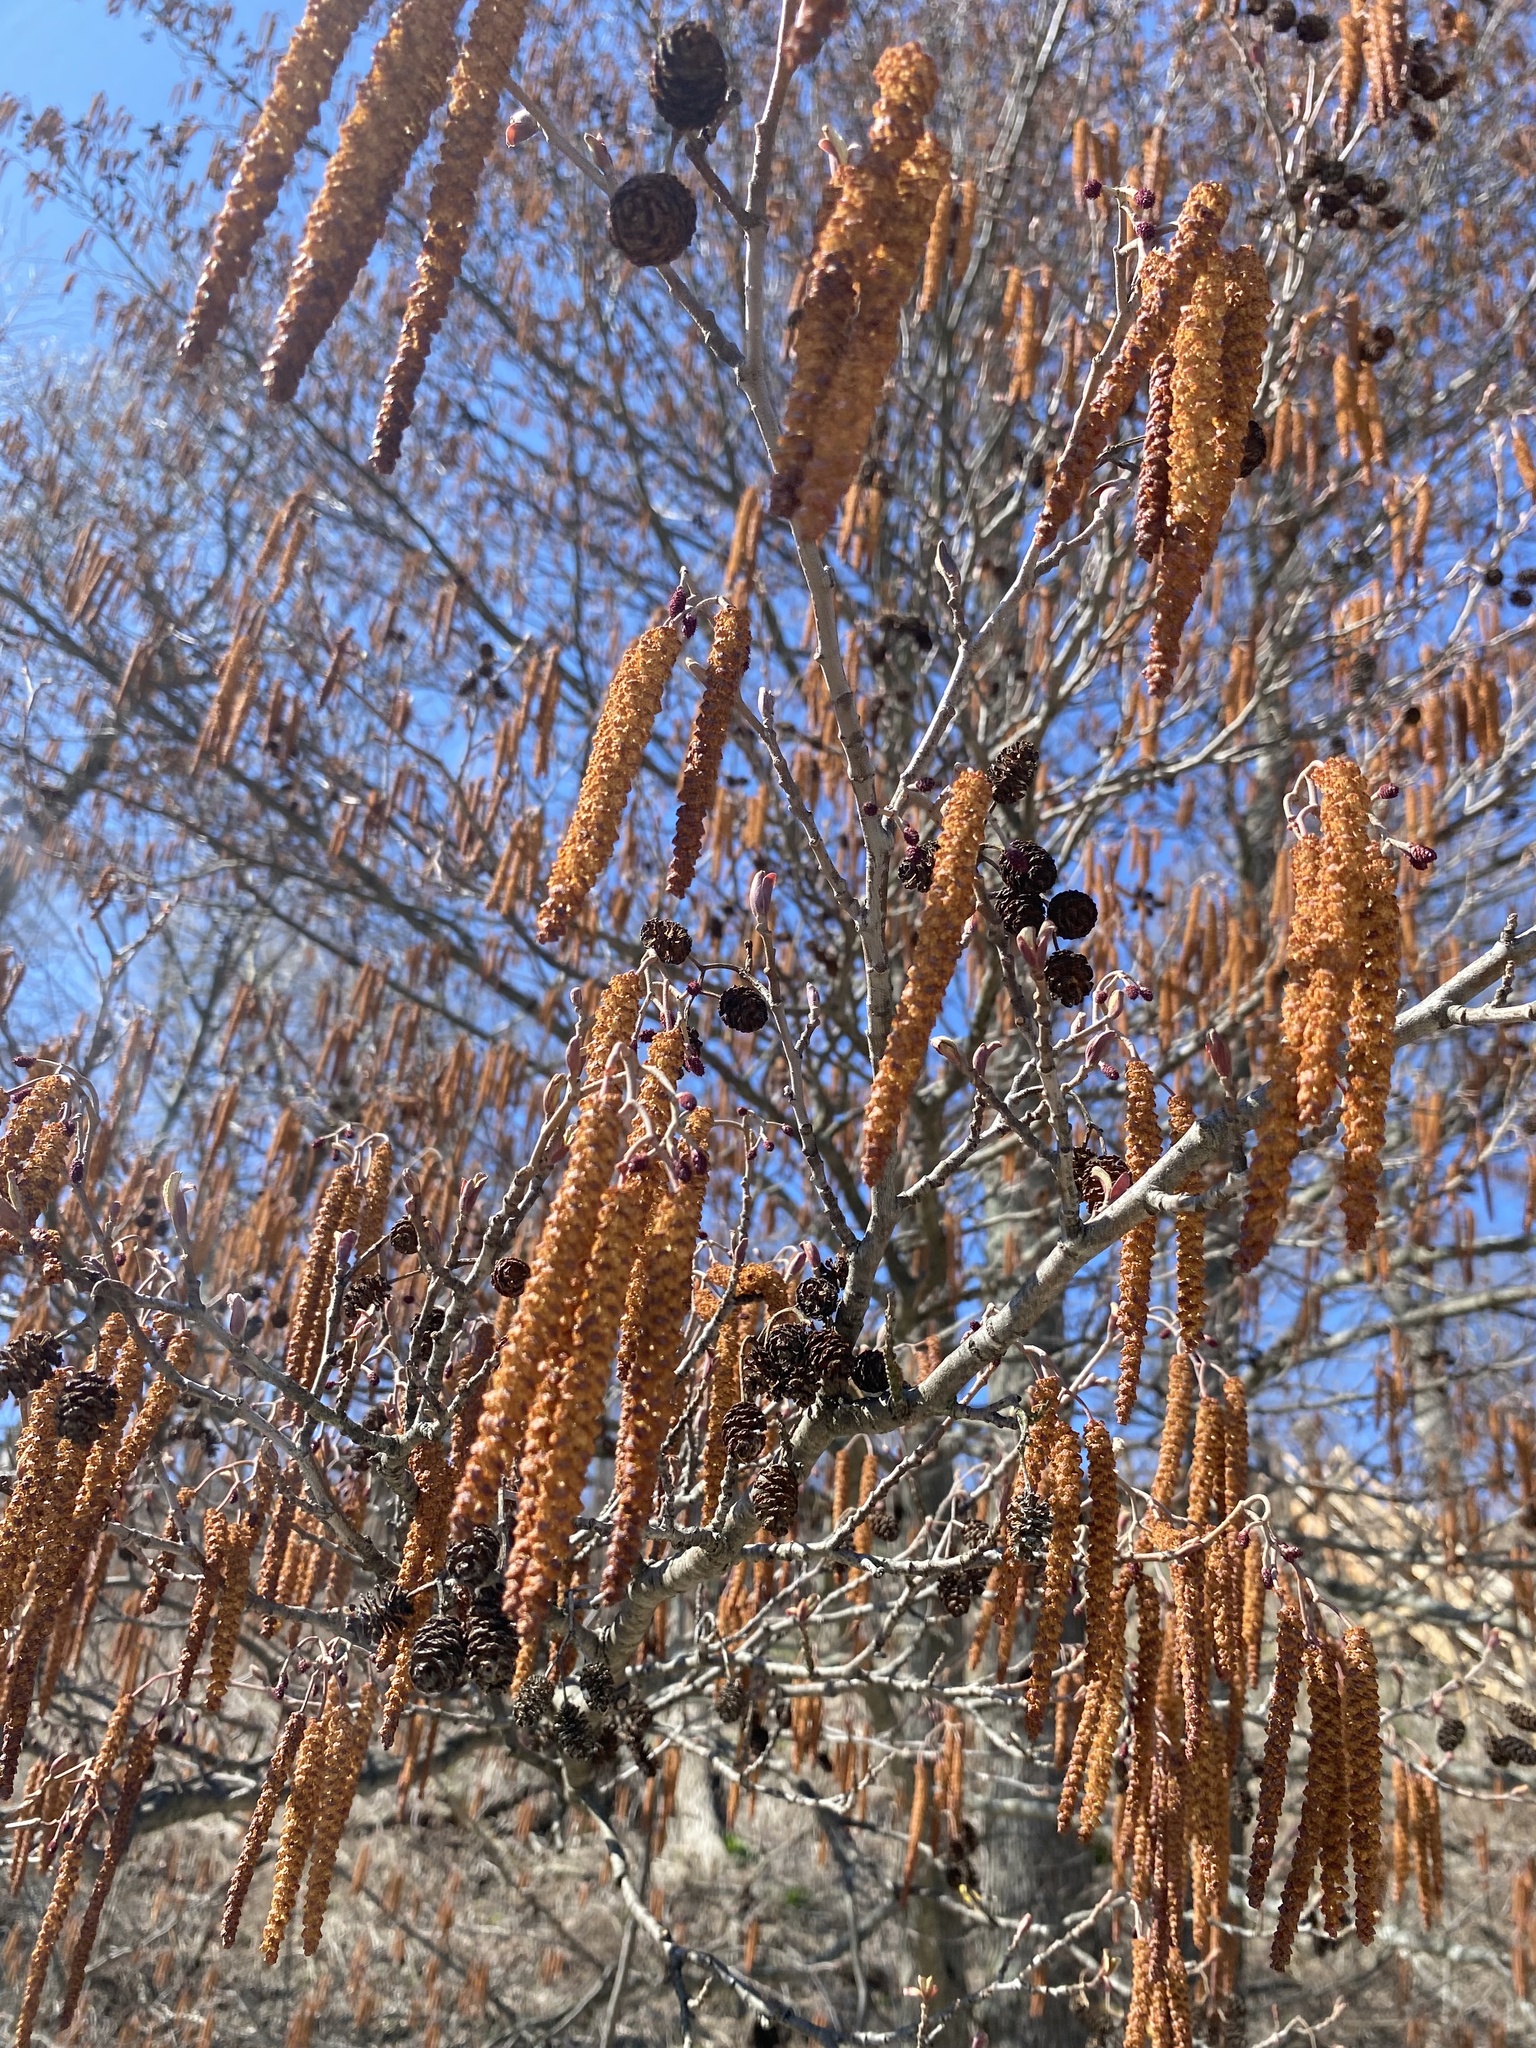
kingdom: Plantae
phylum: Tracheophyta
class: Magnoliopsida
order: Fagales
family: Betulaceae
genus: Alnus
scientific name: Alnus glutinosa
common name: Black alder
